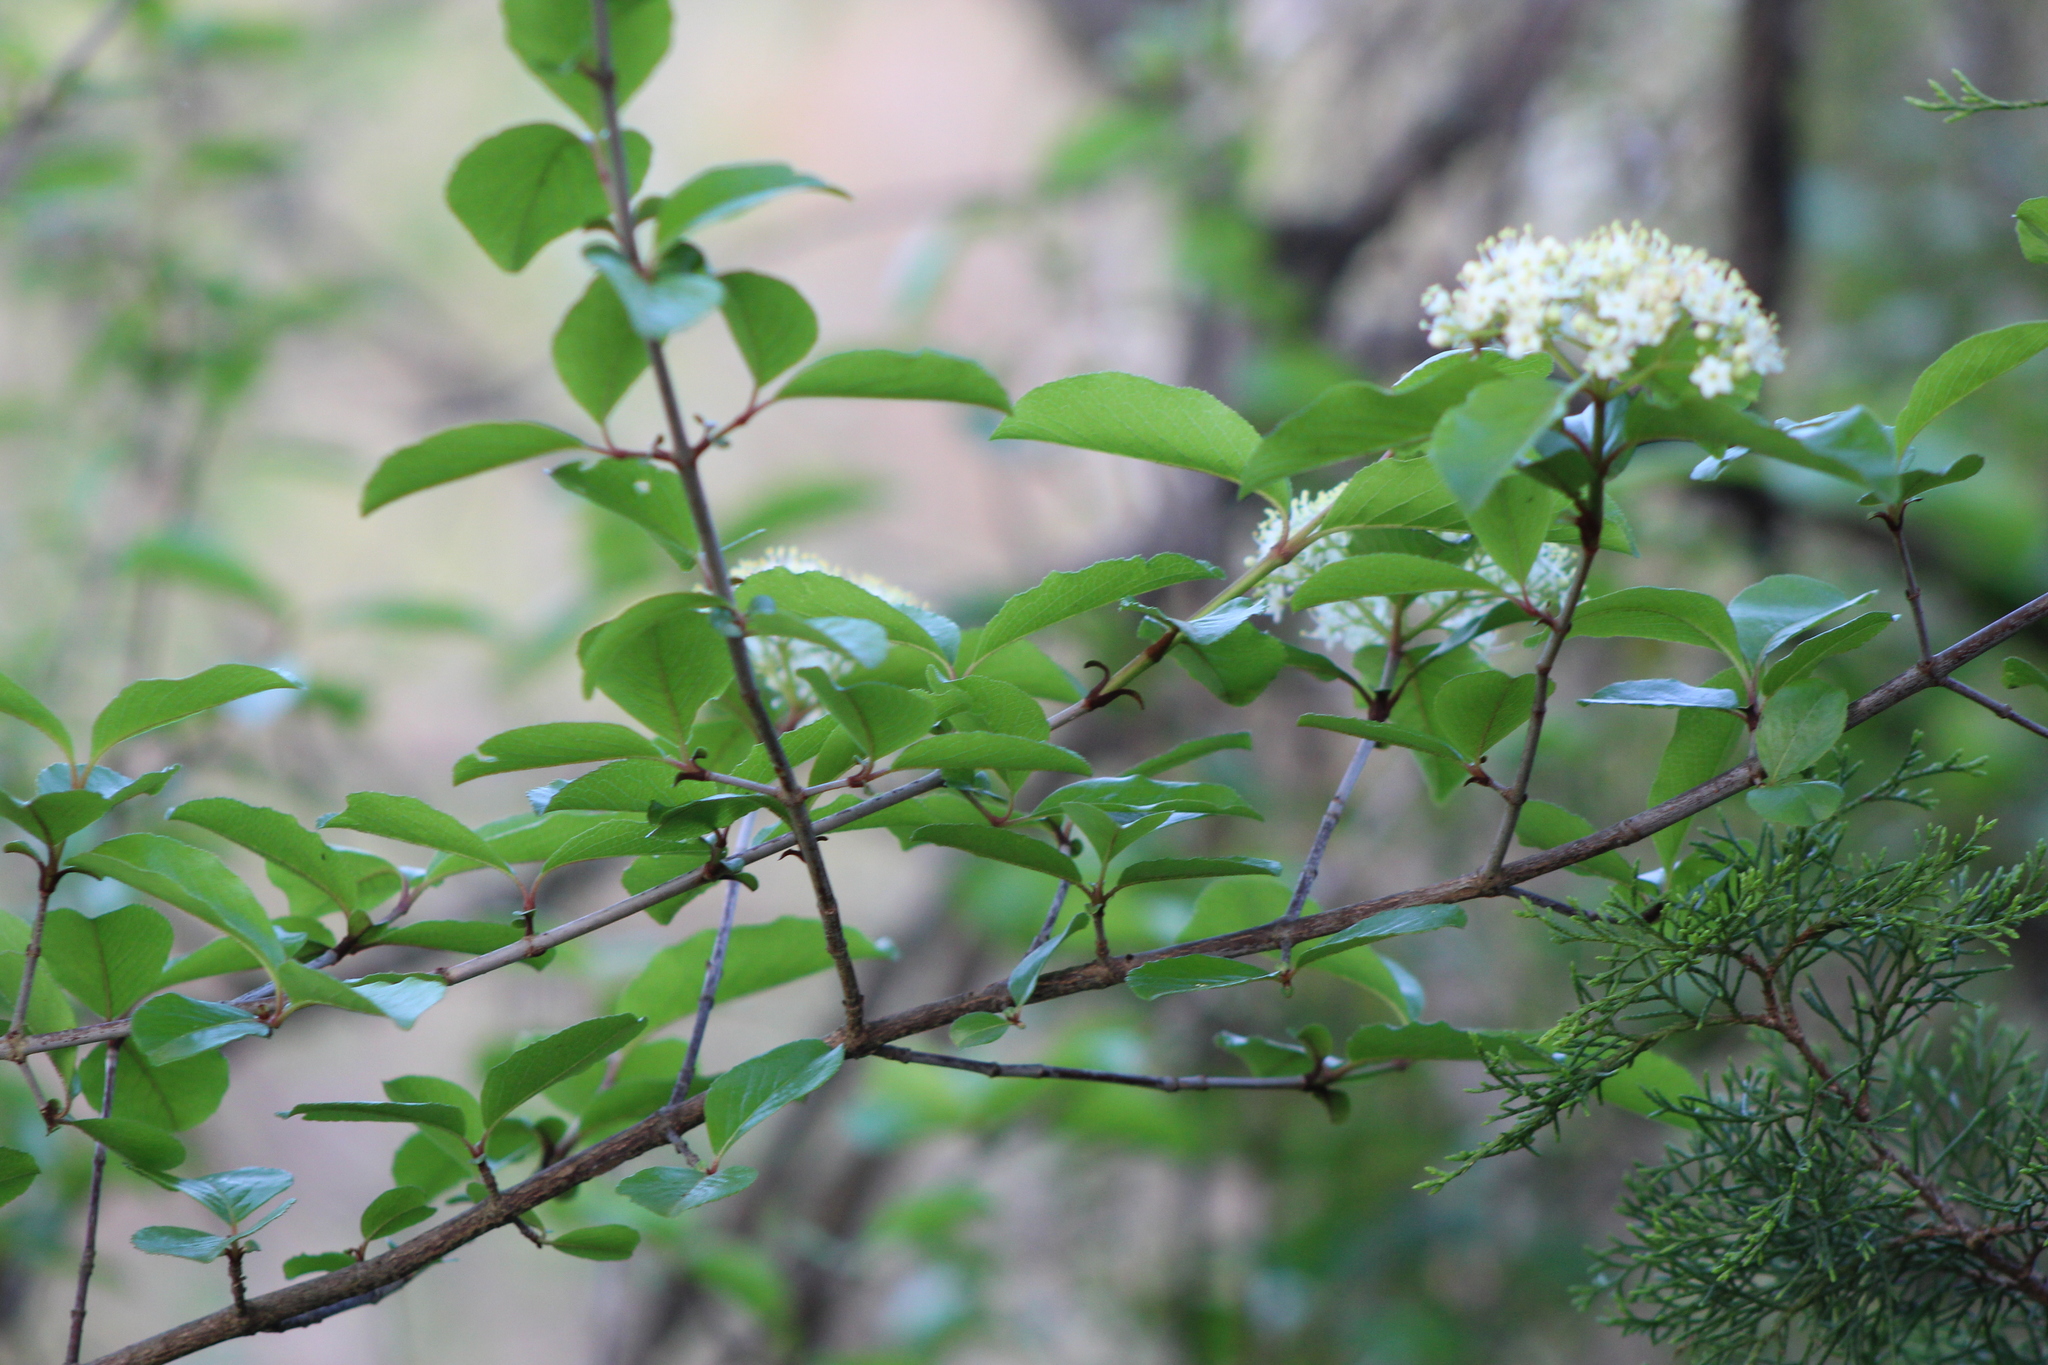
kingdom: Plantae
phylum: Tracheophyta
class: Magnoliopsida
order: Dipsacales
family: Viburnaceae
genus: Viburnum
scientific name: Viburnum rufidulum
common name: Blue haw
